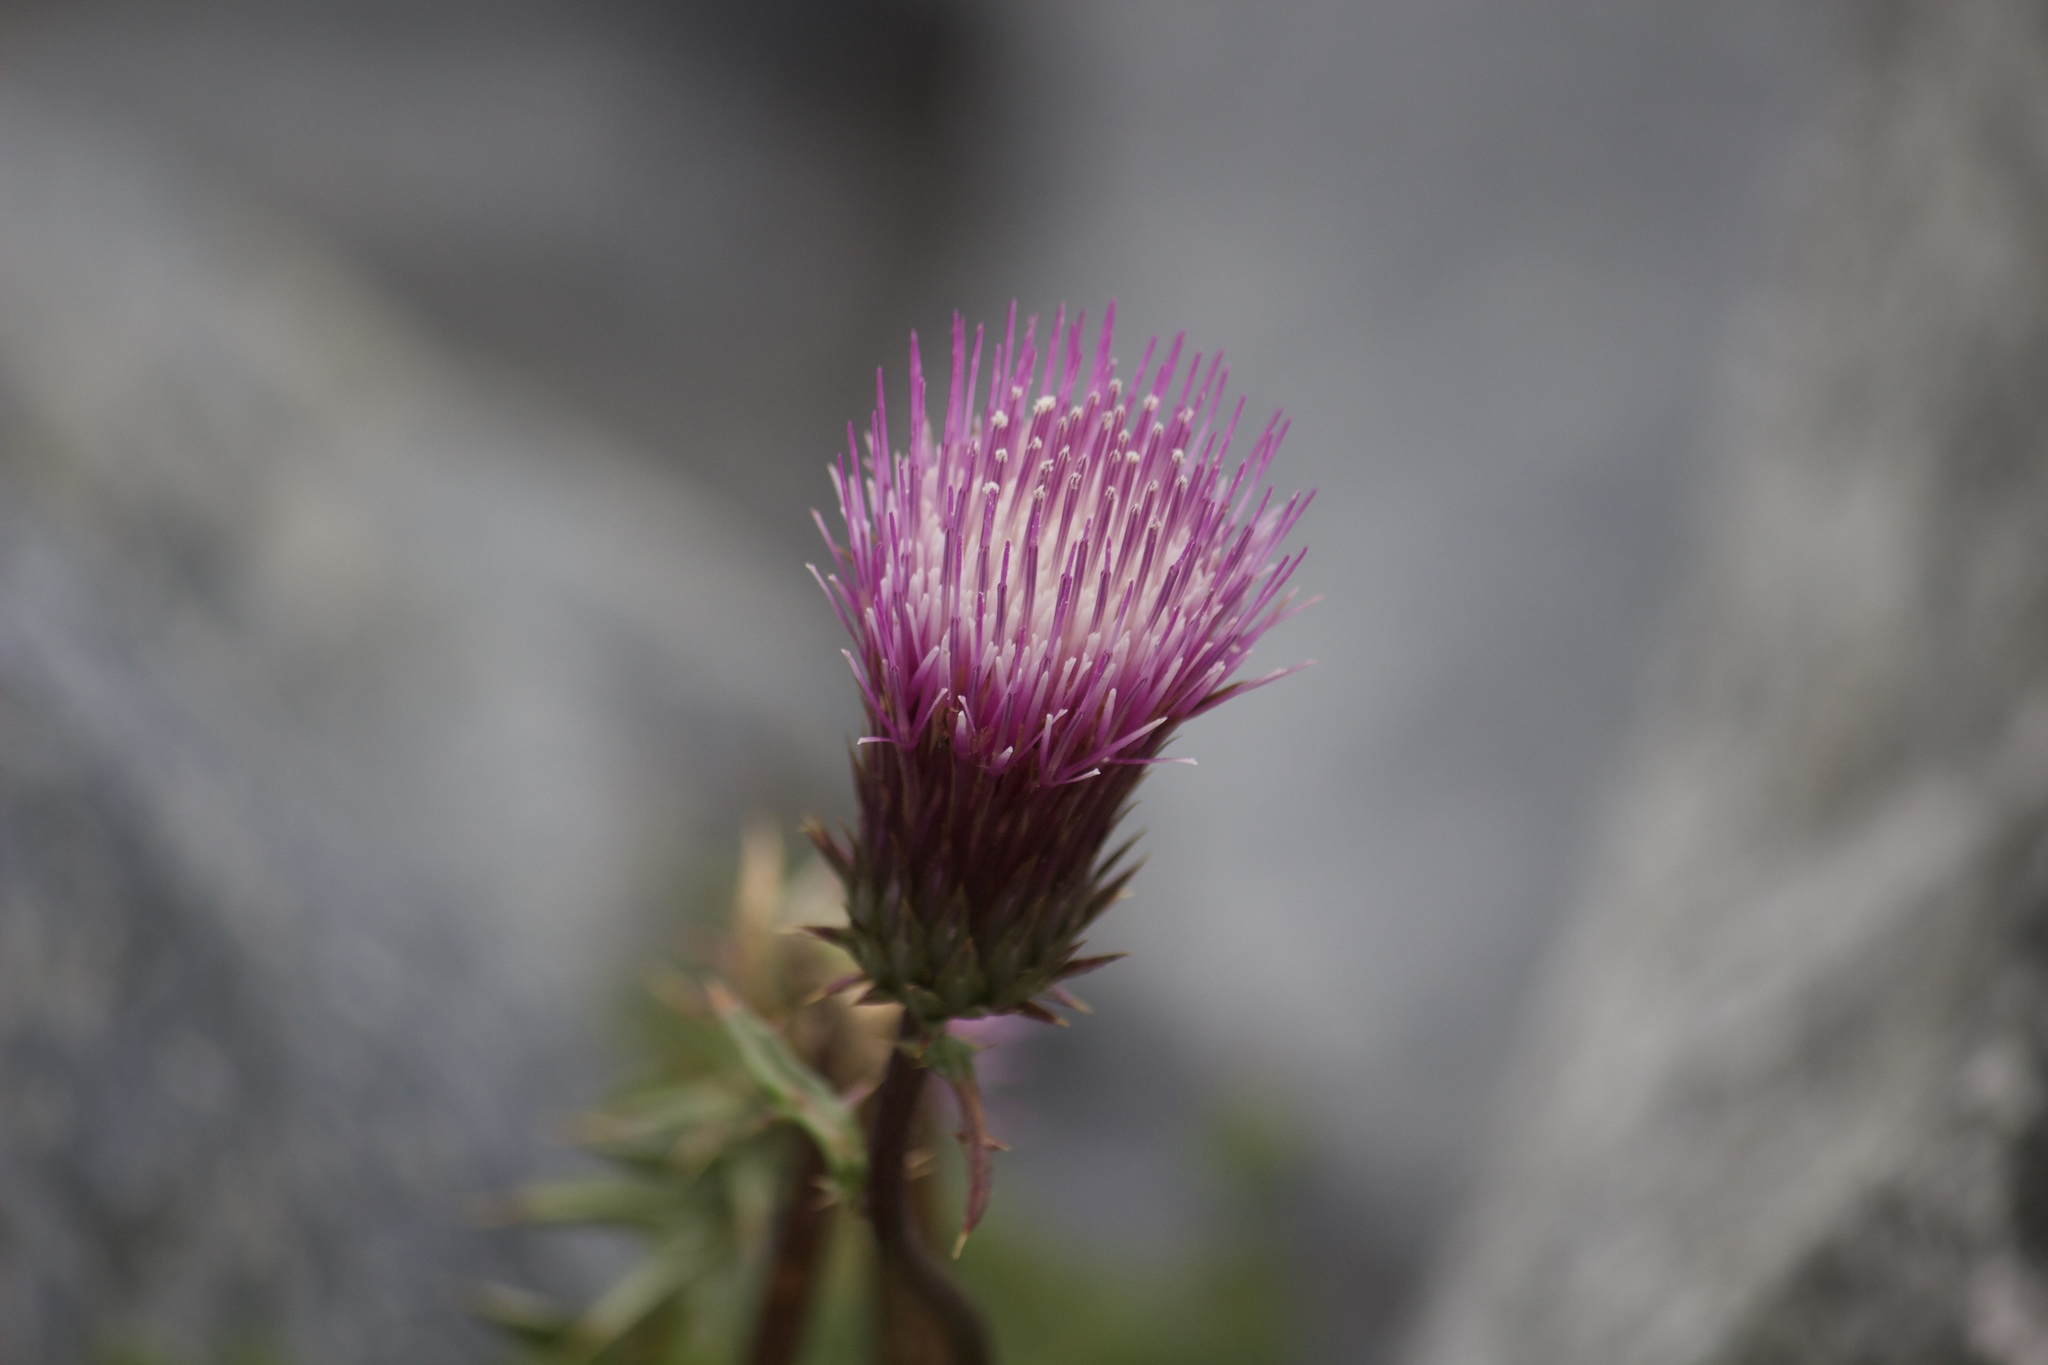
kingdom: Plantae
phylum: Tracheophyta
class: Magnoliopsida
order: Asterales
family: Asteraceae
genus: Cirsium
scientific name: Cirsium andersonii
